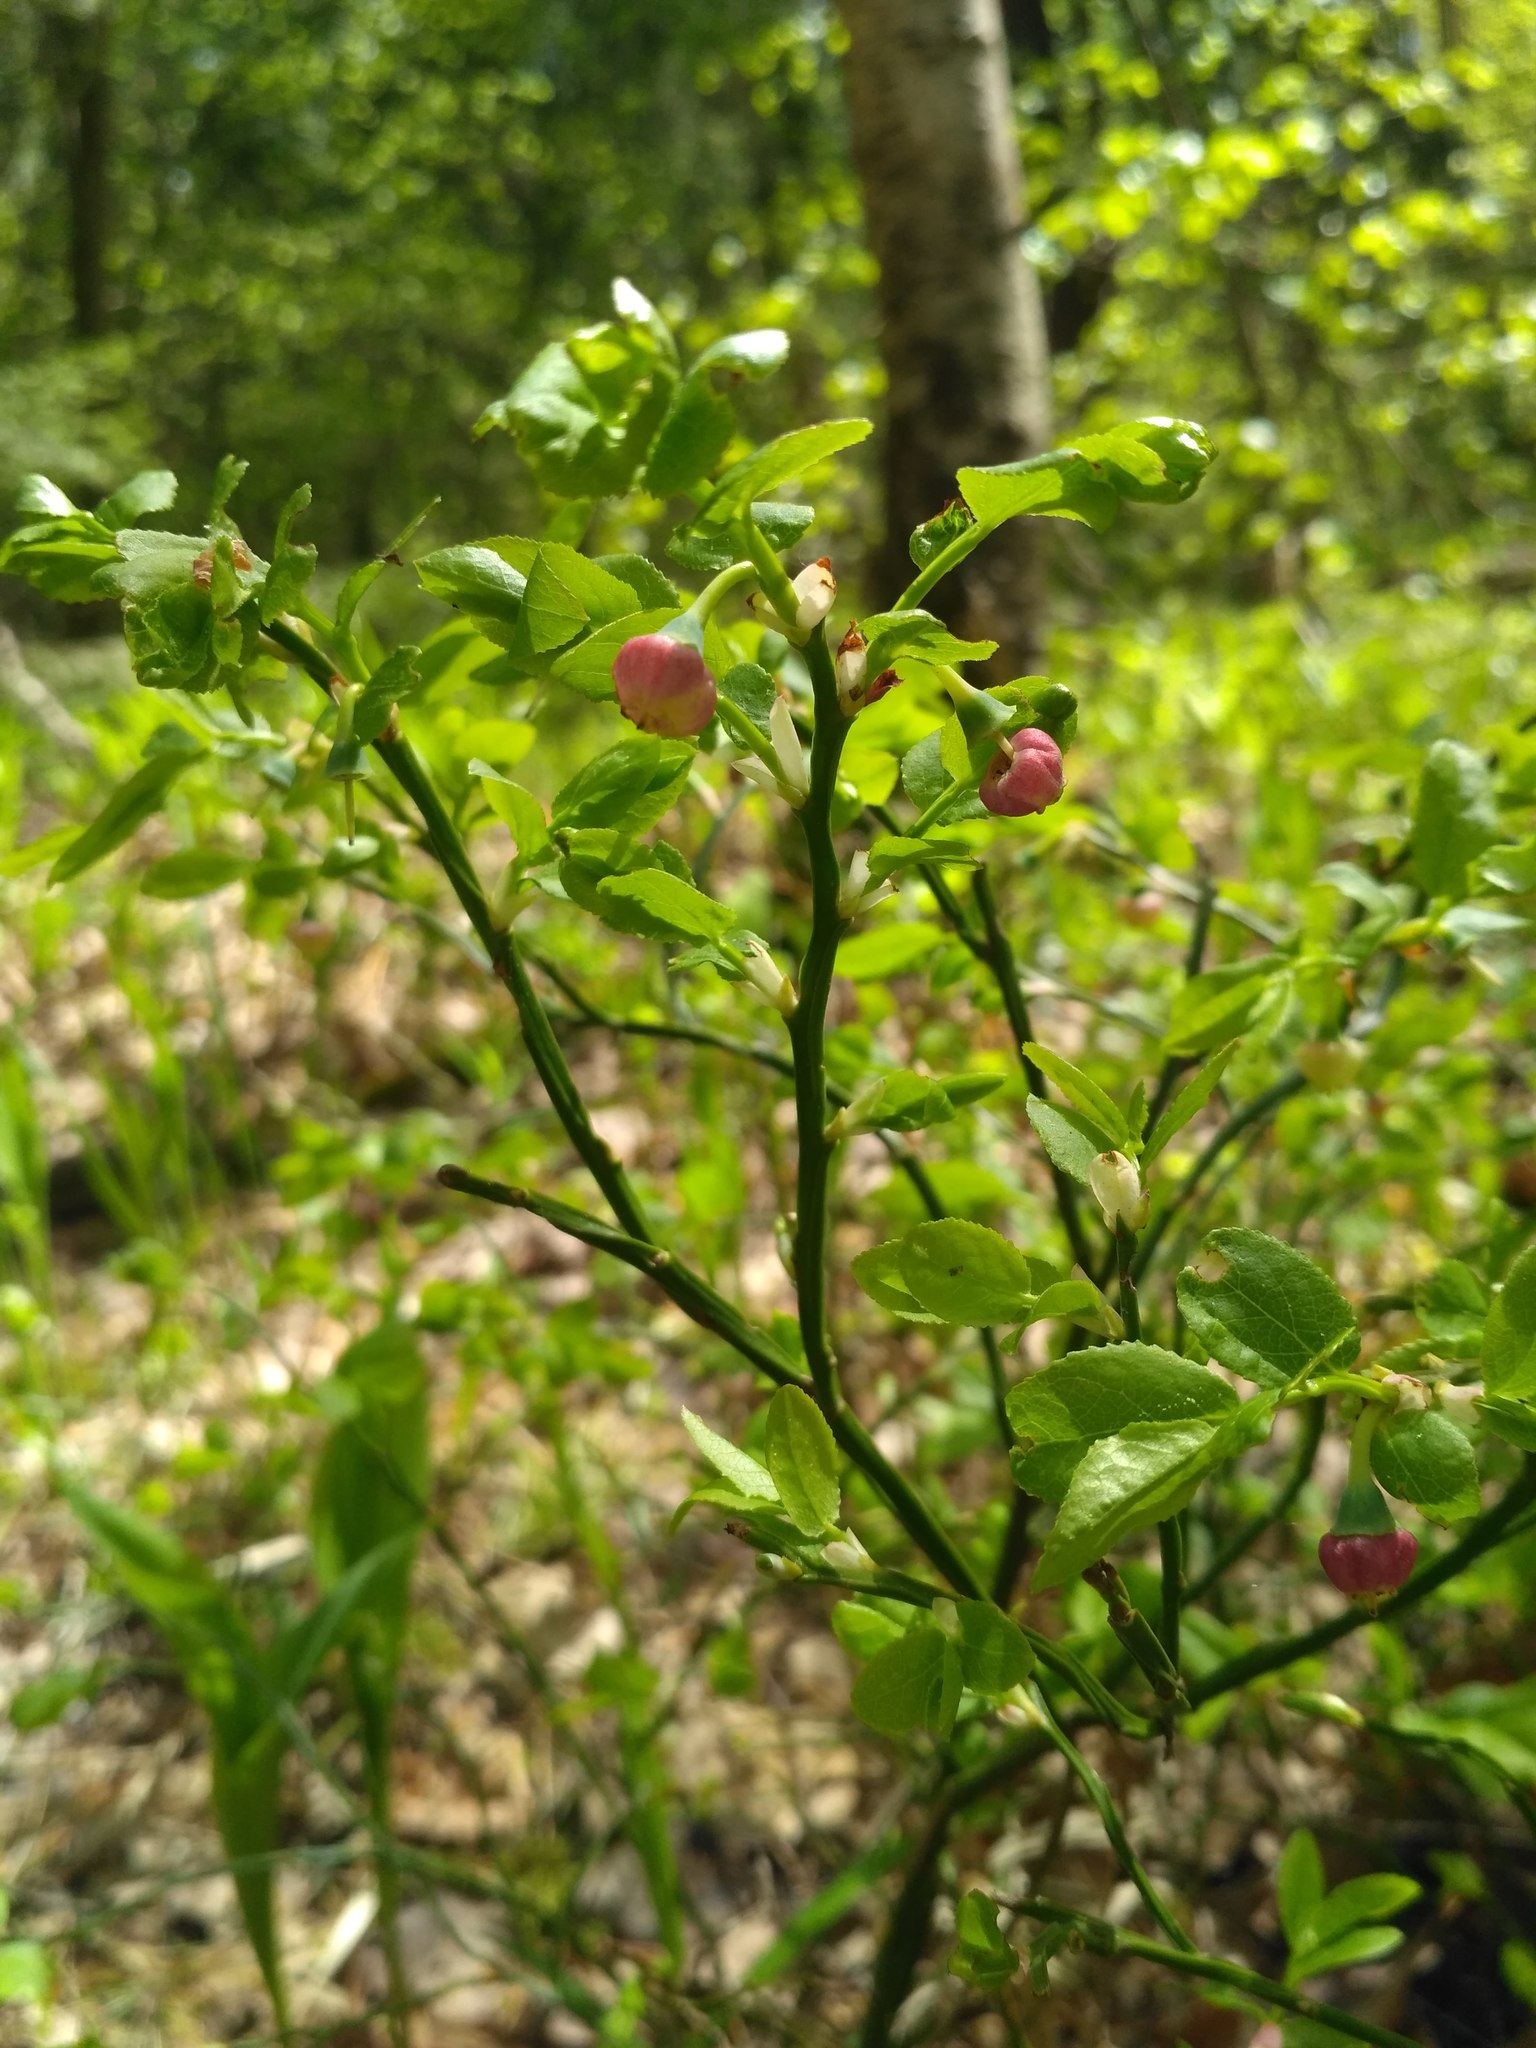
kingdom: Plantae
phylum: Tracheophyta
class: Magnoliopsida
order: Ericales
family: Ericaceae
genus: Vaccinium
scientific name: Vaccinium myrtillus
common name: Bilberry
